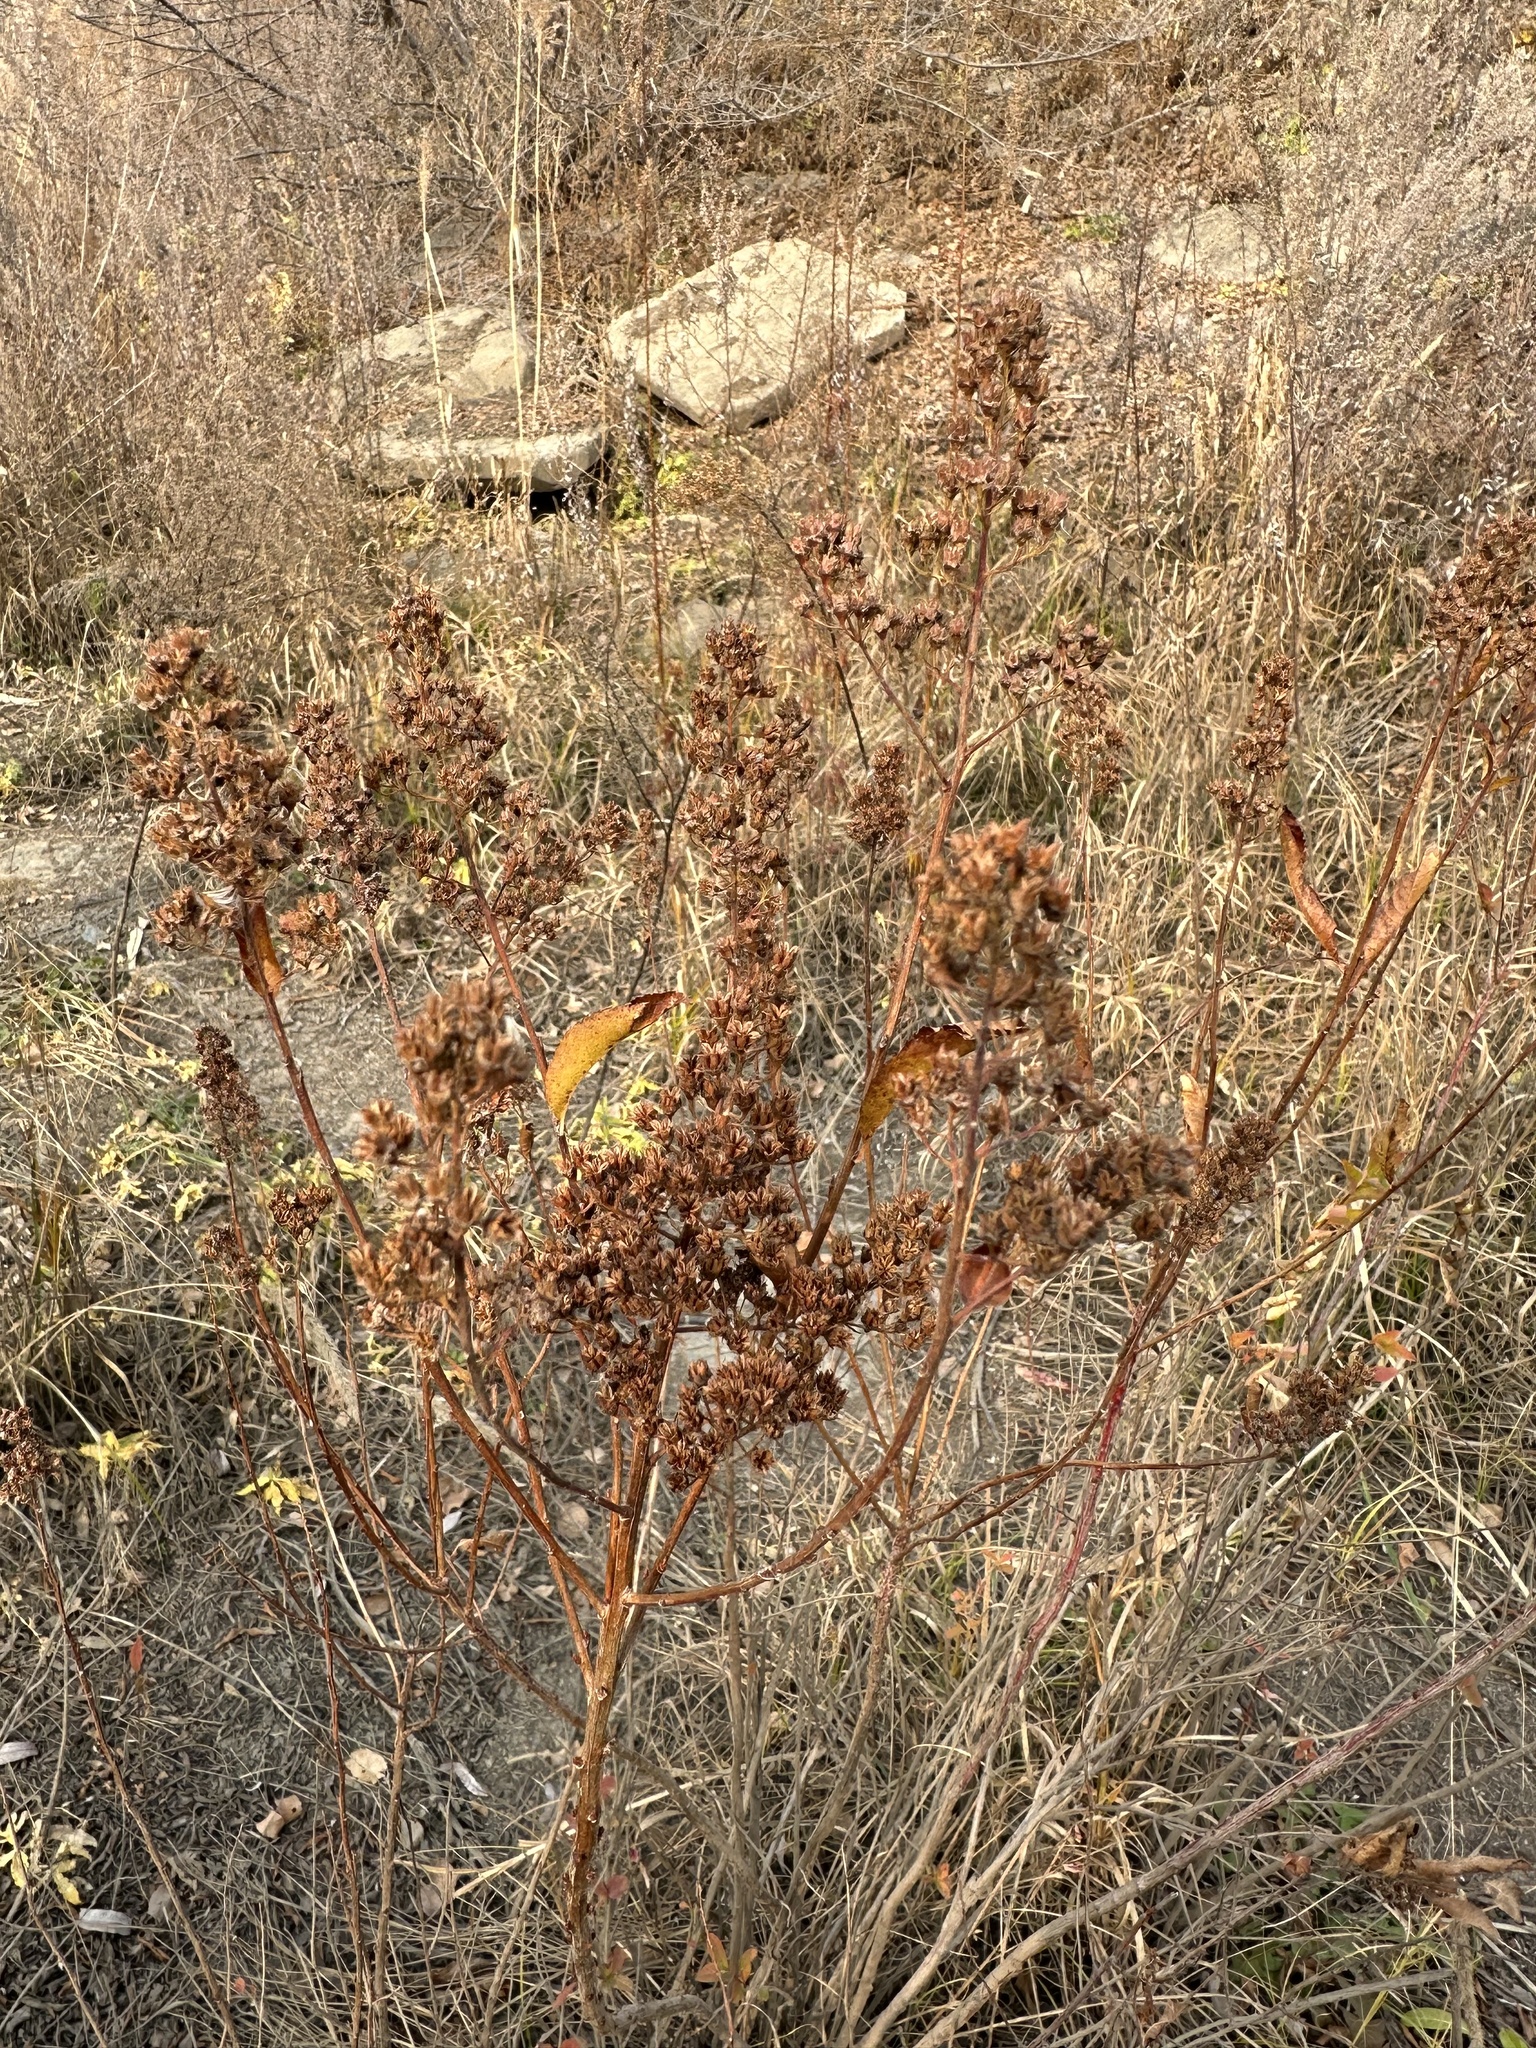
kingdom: Plantae
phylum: Tracheophyta
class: Magnoliopsida
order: Rosales
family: Rosaceae
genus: Spiraea
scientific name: Spiraea salicifolia
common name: Bridewort
